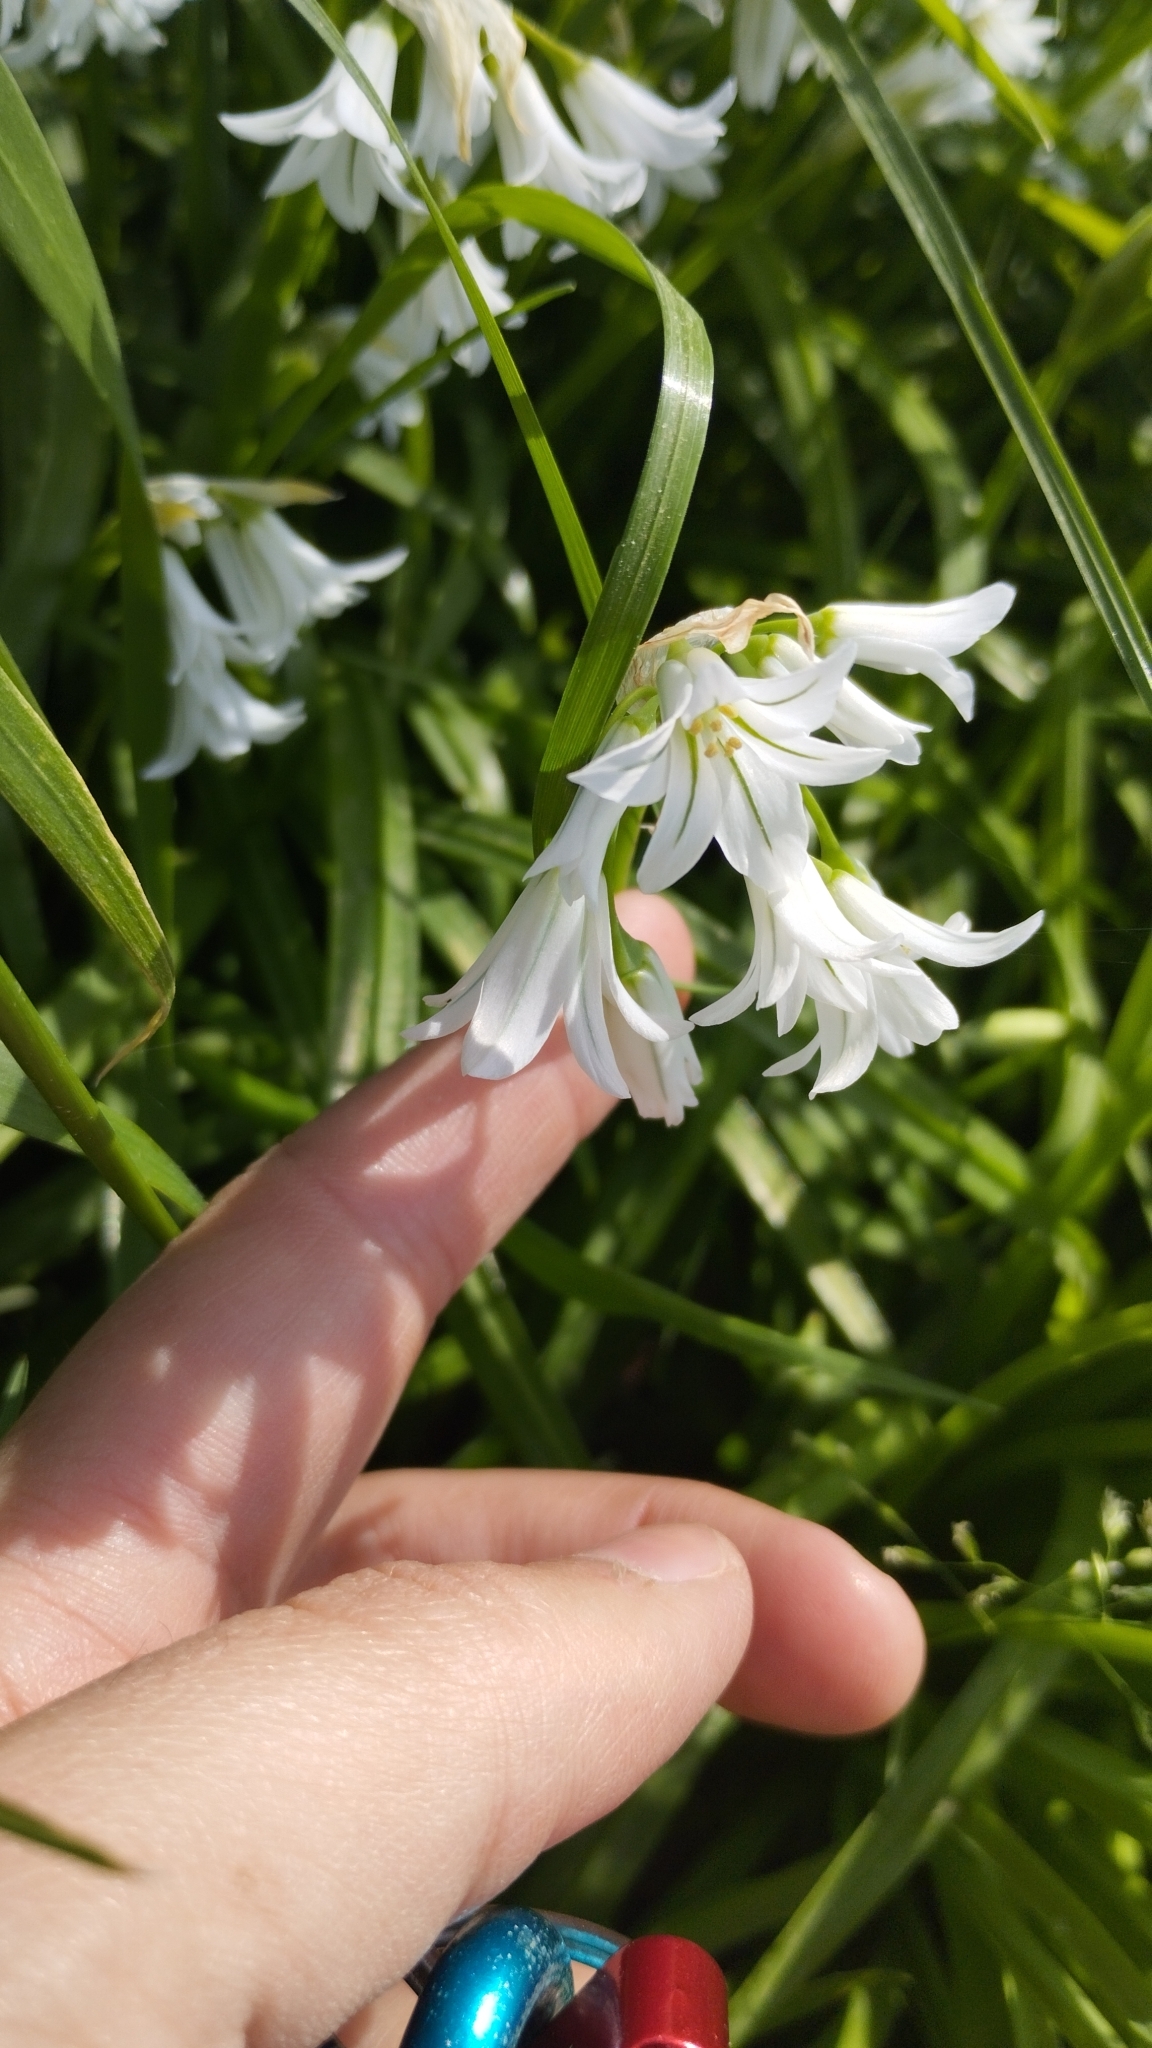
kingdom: Plantae
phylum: Tracheophyta
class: Liliopsida
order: Asparagales
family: Amaryllidaceae
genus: Allium
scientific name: Allium triquetrum
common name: Three-cornered garlic
